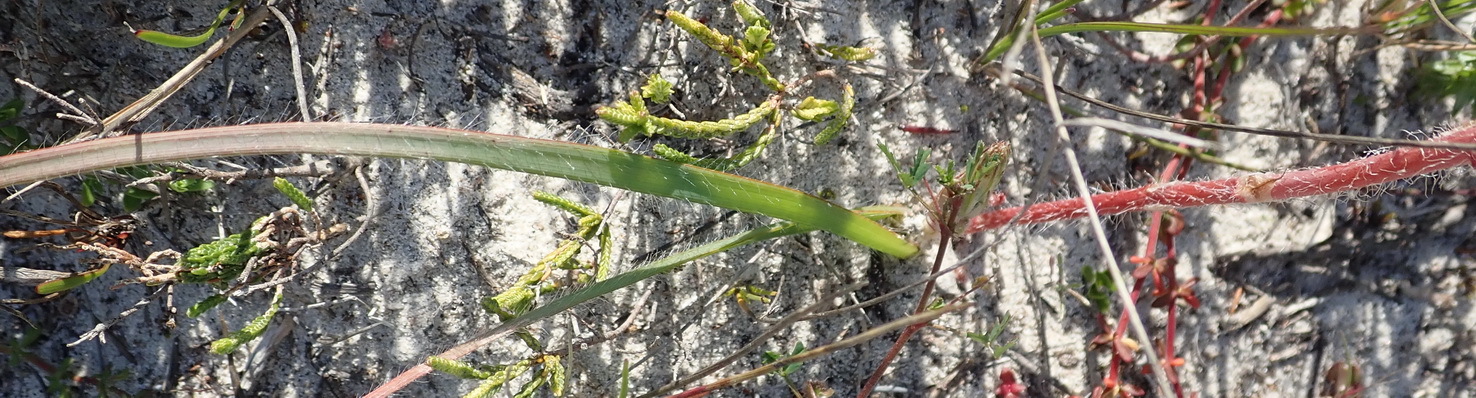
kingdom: Plantae
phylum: Tracheophyta
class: Liliopsida
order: Asparagales
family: Asphodelaceae
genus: Trachyandra
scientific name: Trachyandra ciliata
